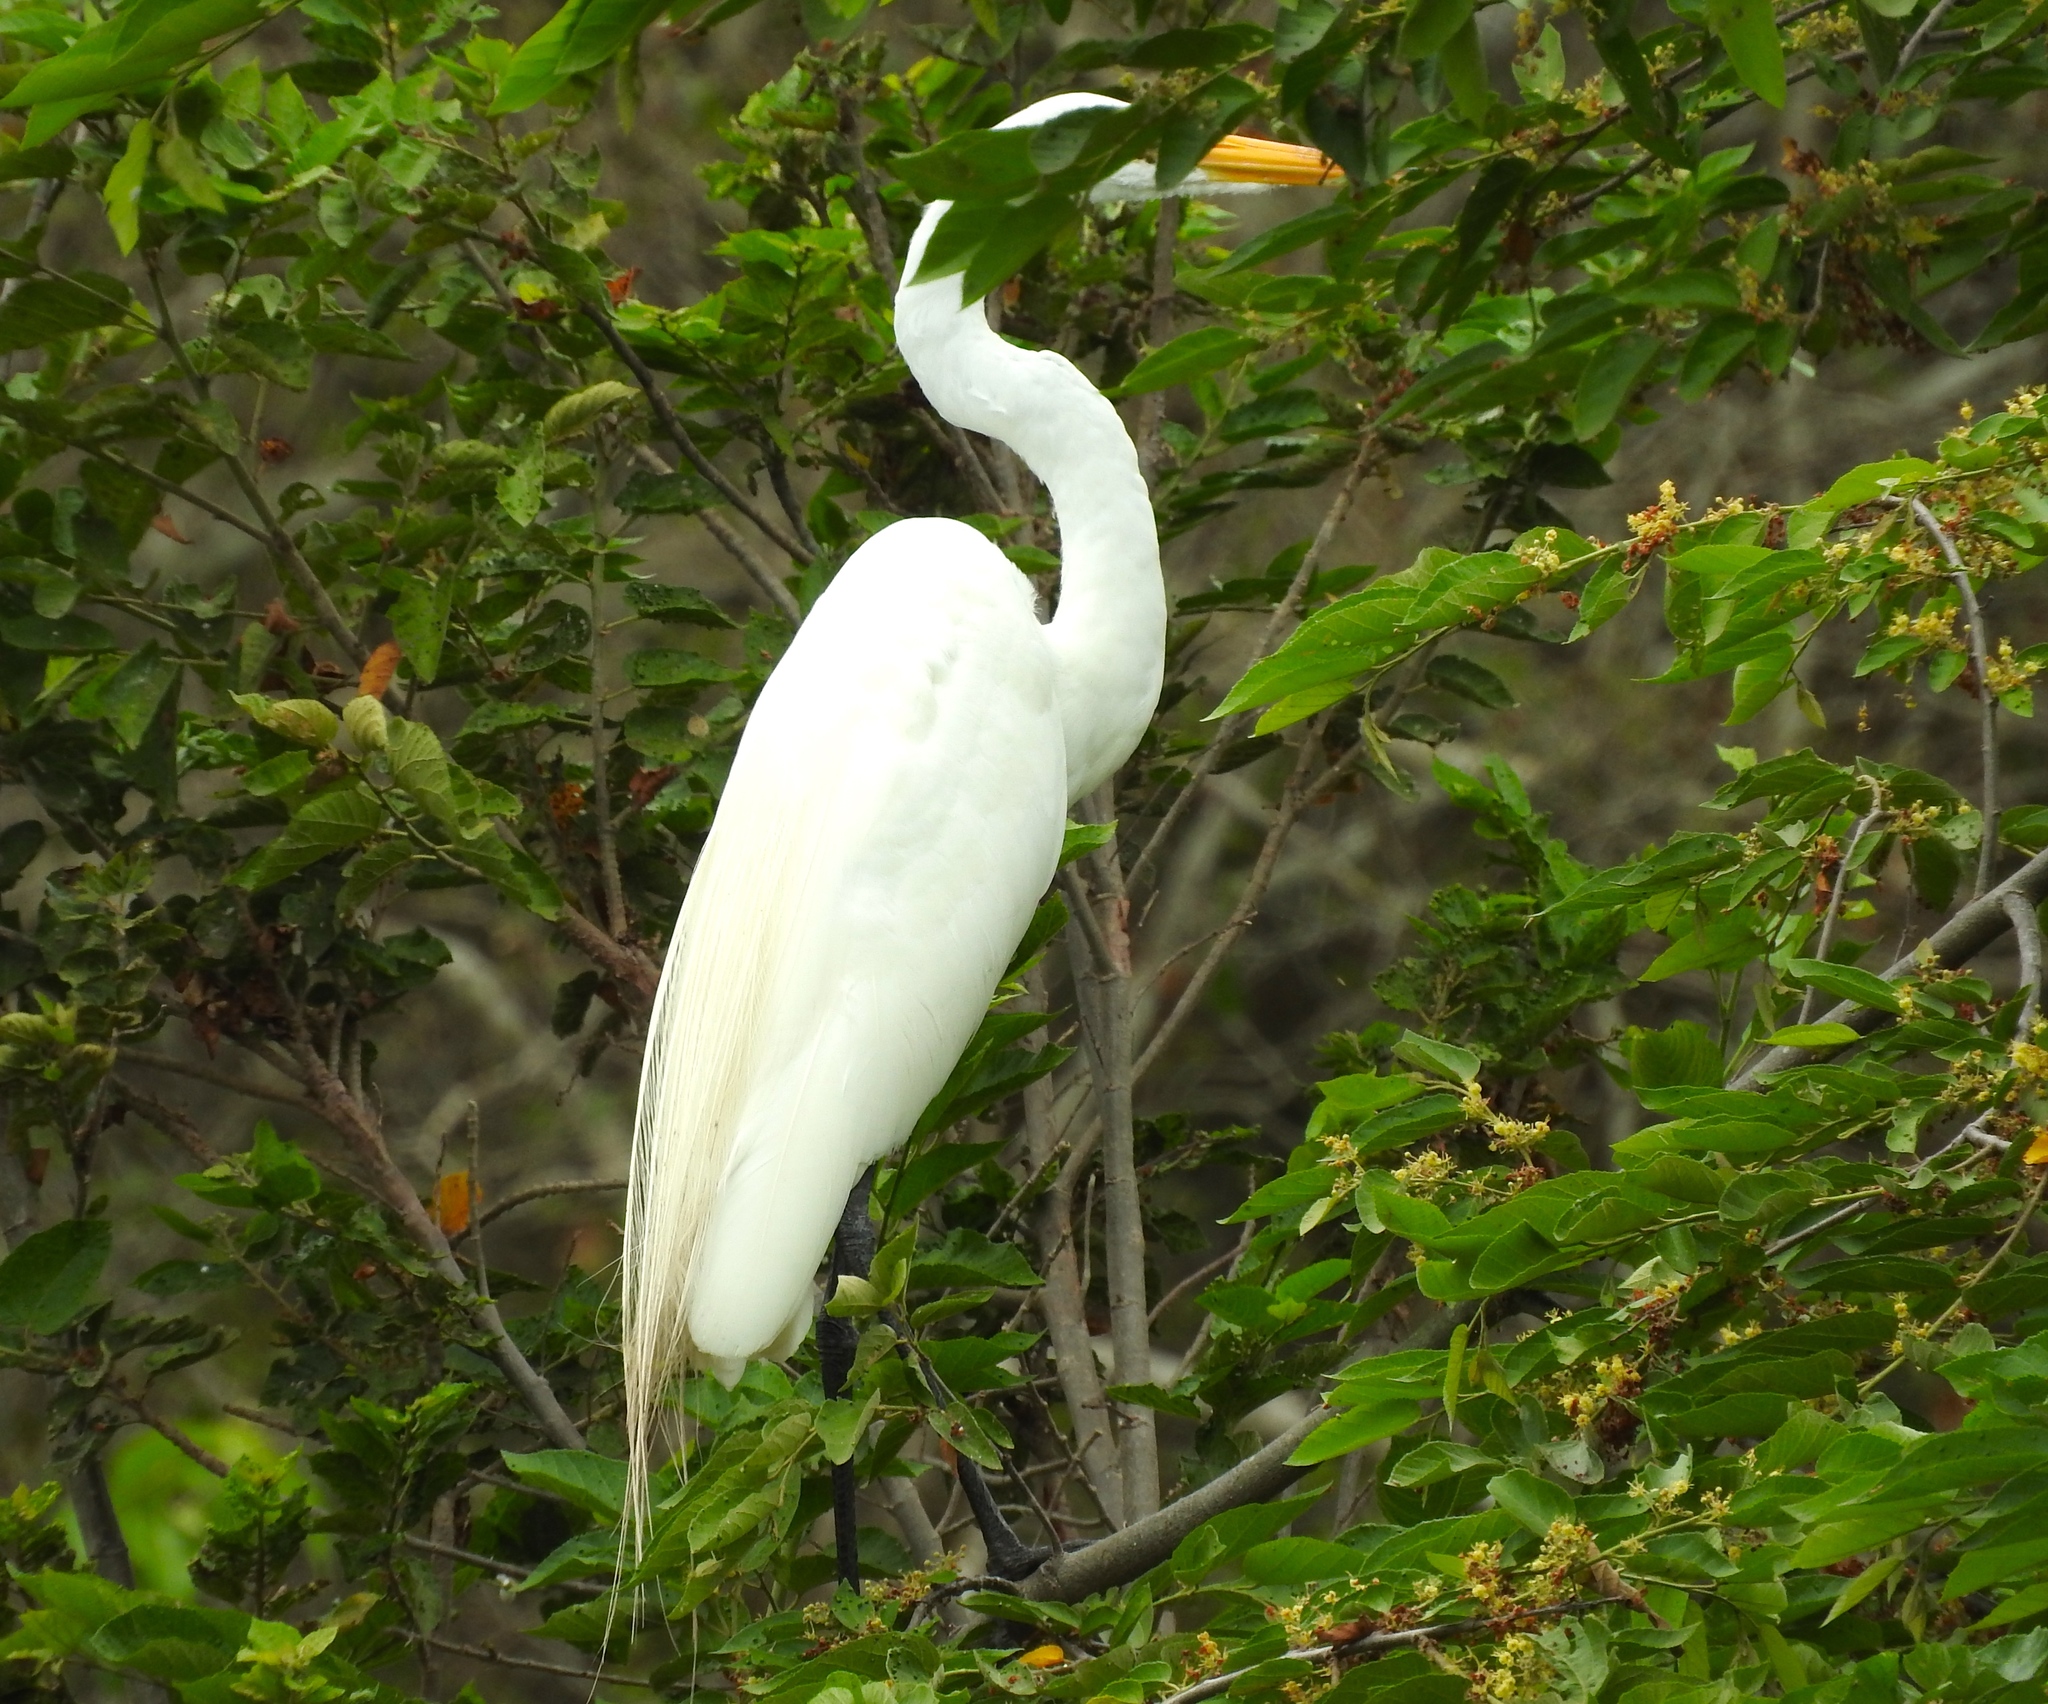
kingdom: Animalia
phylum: Chordata
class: Aves
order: Pelecaniformes
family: Ardeidae
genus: Ardea
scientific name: Ardea alba
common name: Great egret
